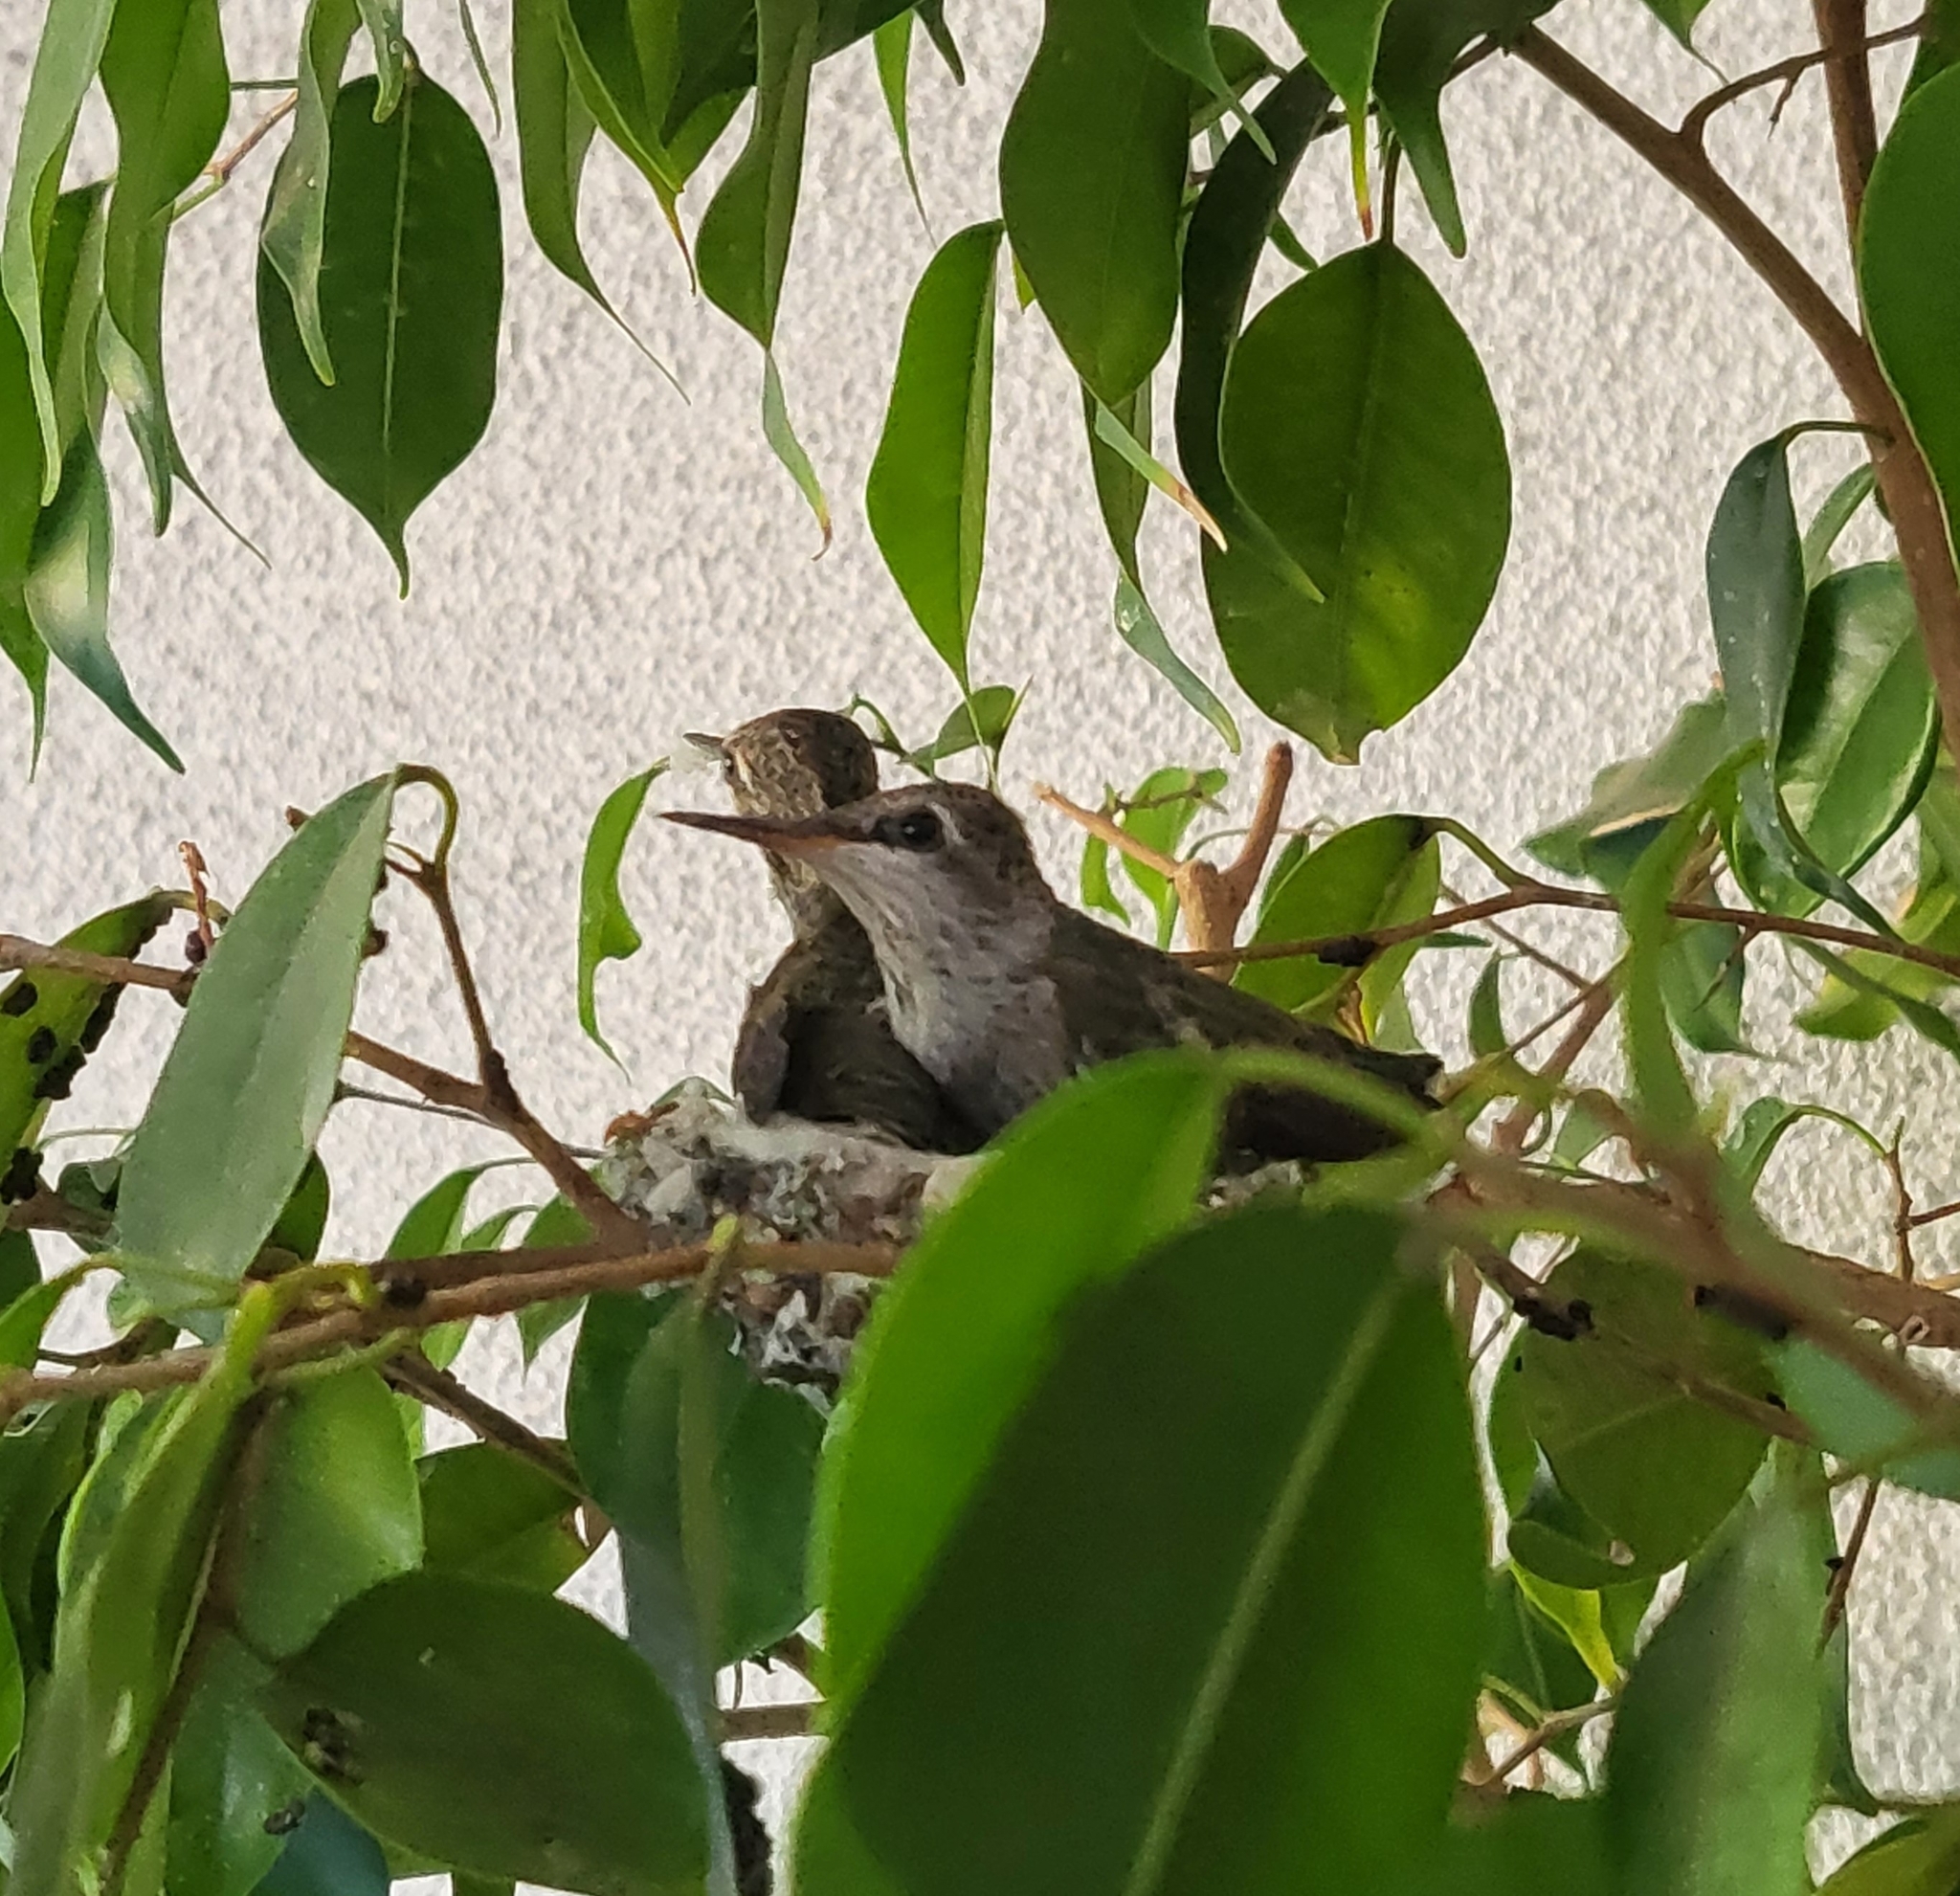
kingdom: Animalia
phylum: Chordata
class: Aves
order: Apodiformes
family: Trochilidae
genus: Calypte
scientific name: Calypte anna
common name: Anna's hummingbird
